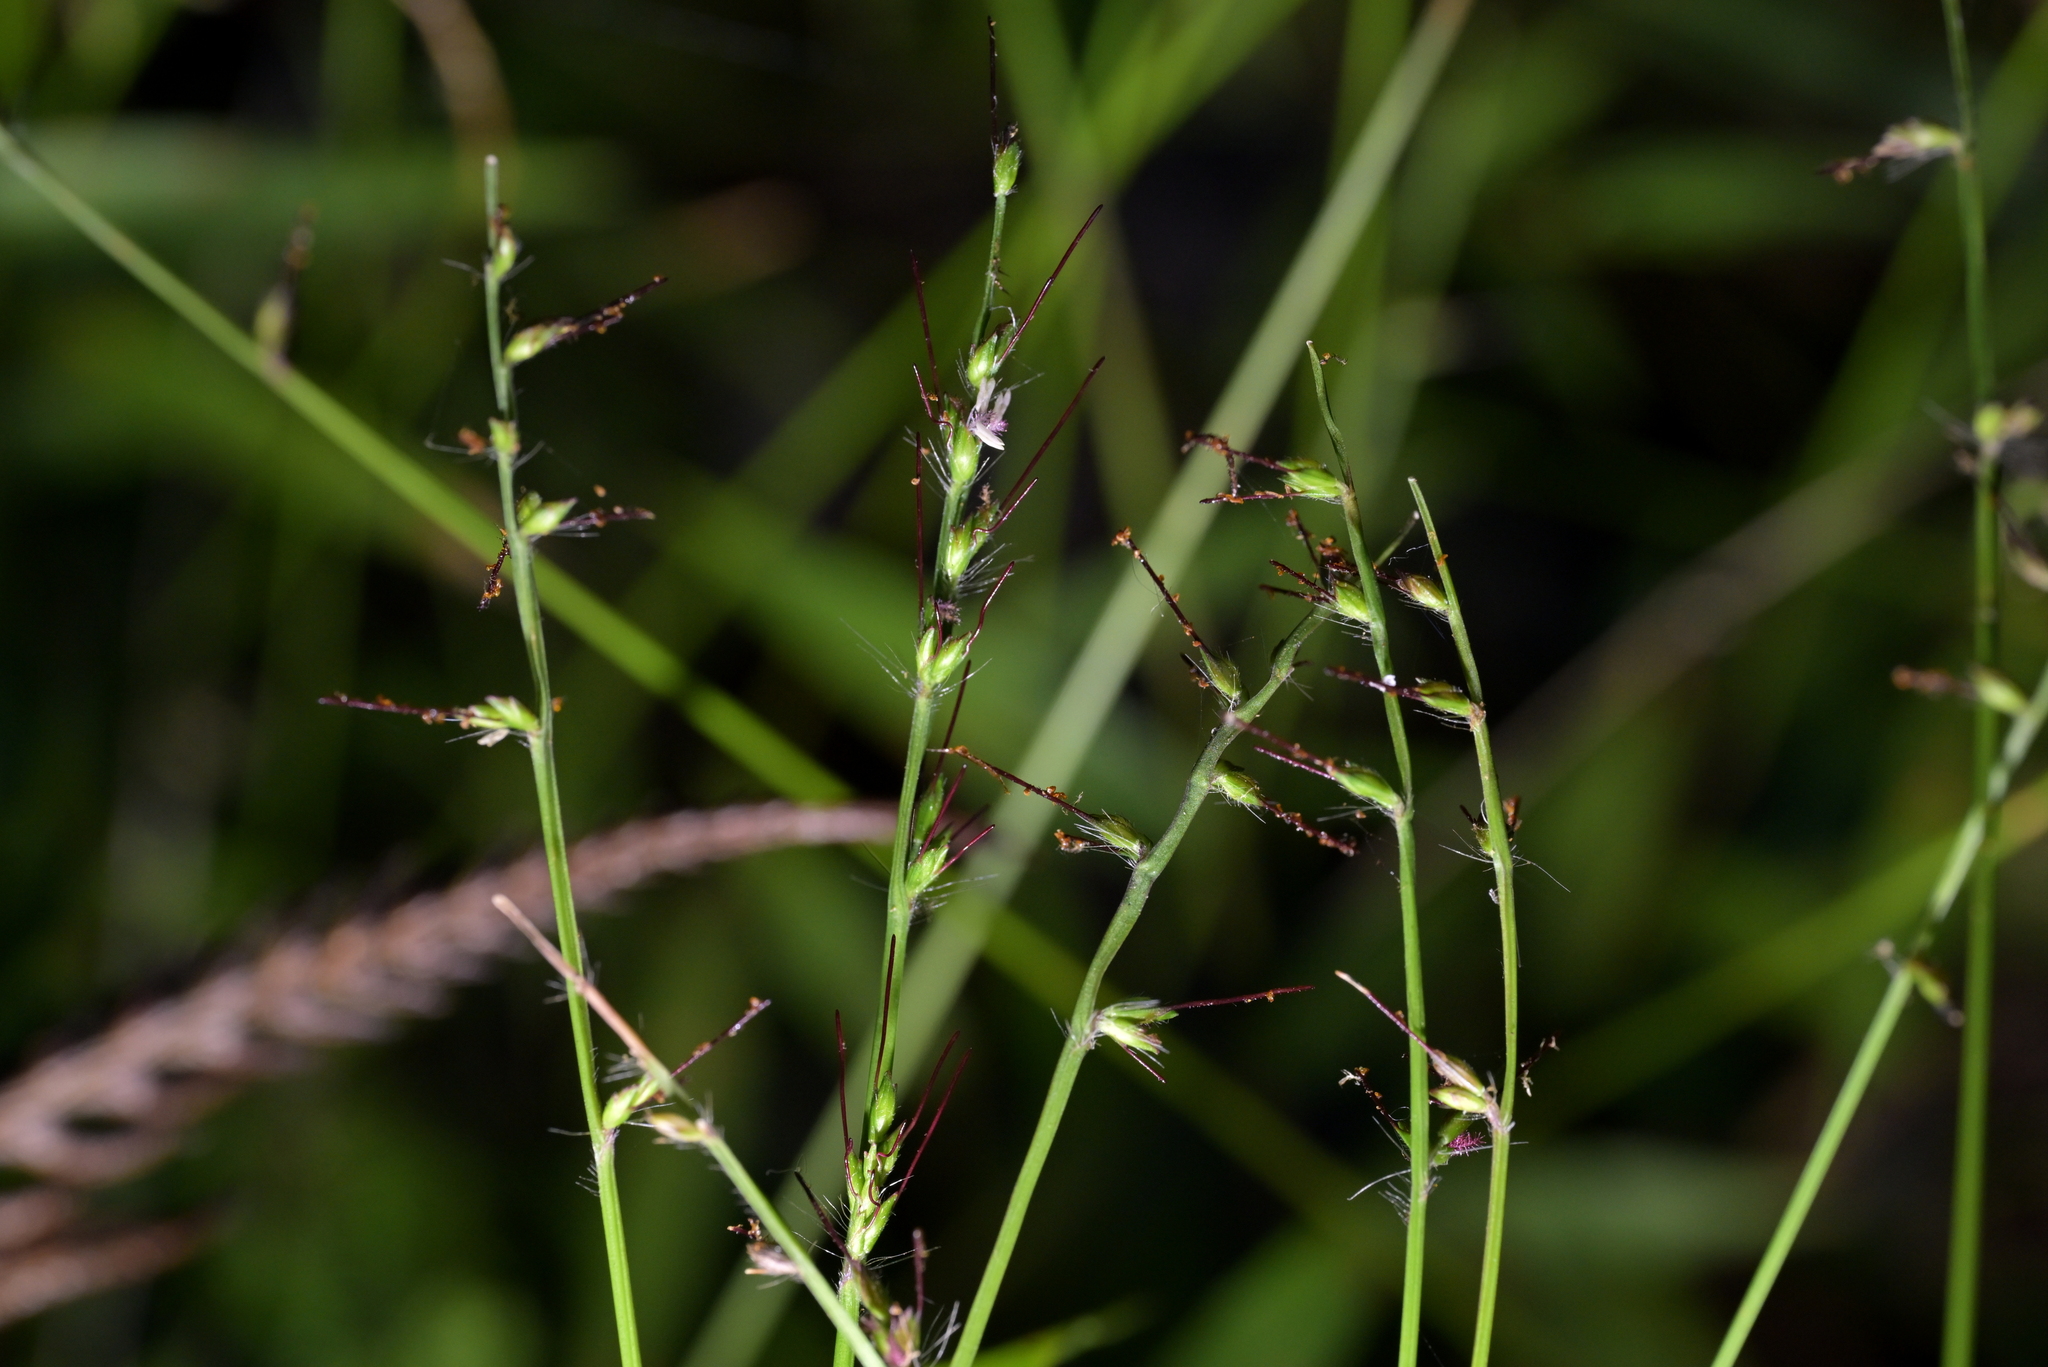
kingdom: Plantae
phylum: Tracheophyta
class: Liliopsida
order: Poales
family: Poaceae
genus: Oplismenus
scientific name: Oplismenus hirtellus
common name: Basketgrass
